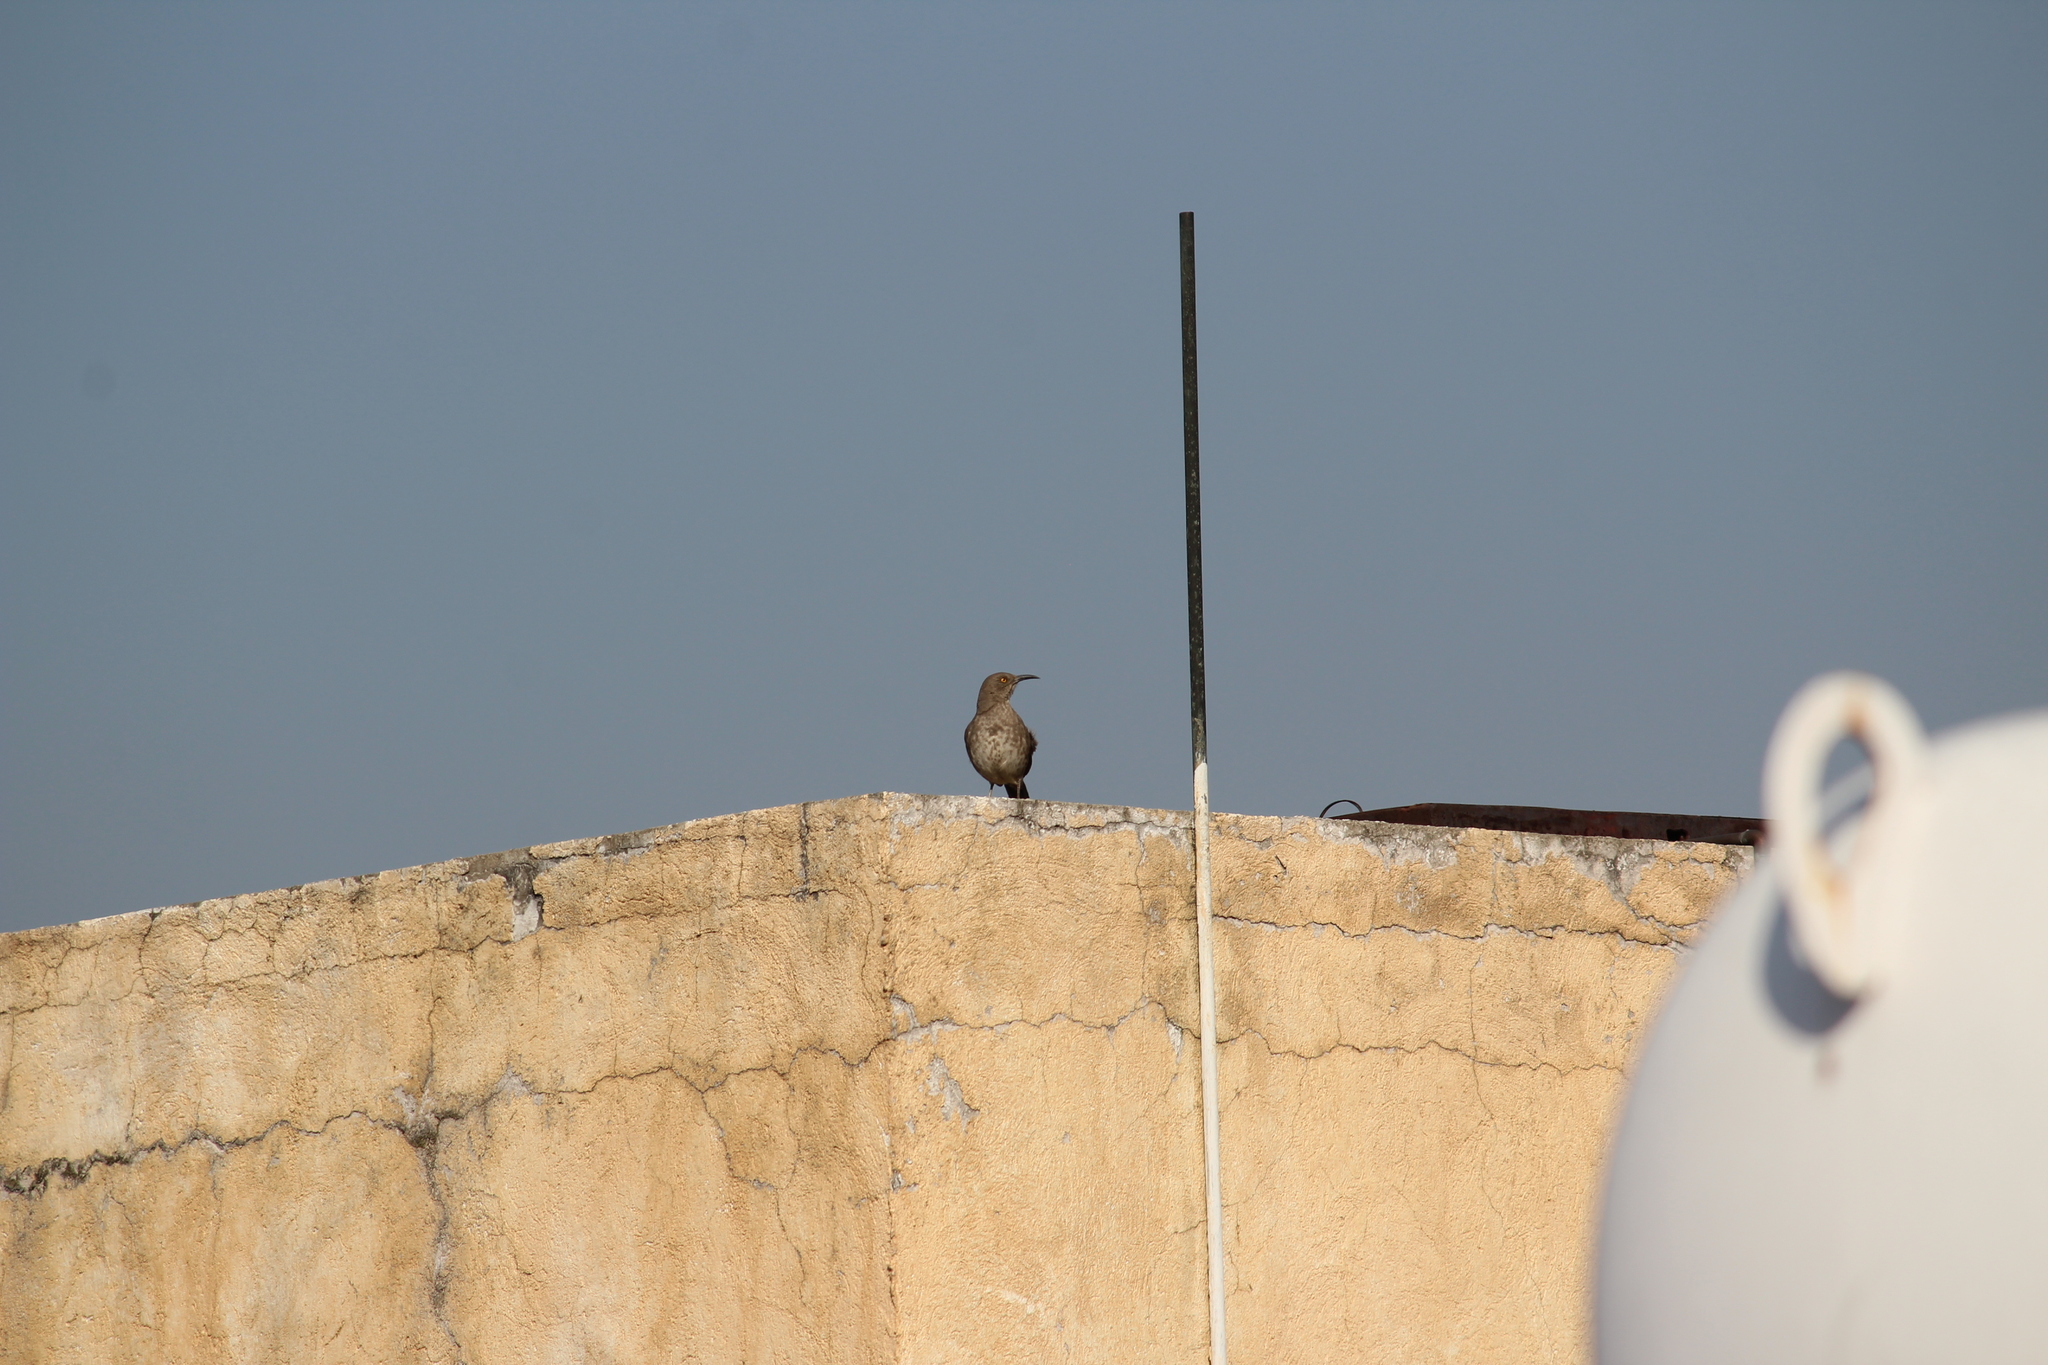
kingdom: Animalia
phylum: Chordata
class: Aves
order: Passeriformes
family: Mimidae
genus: Toxostoma
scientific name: Toxostoma curvirostre
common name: Curve-billed thrasher
